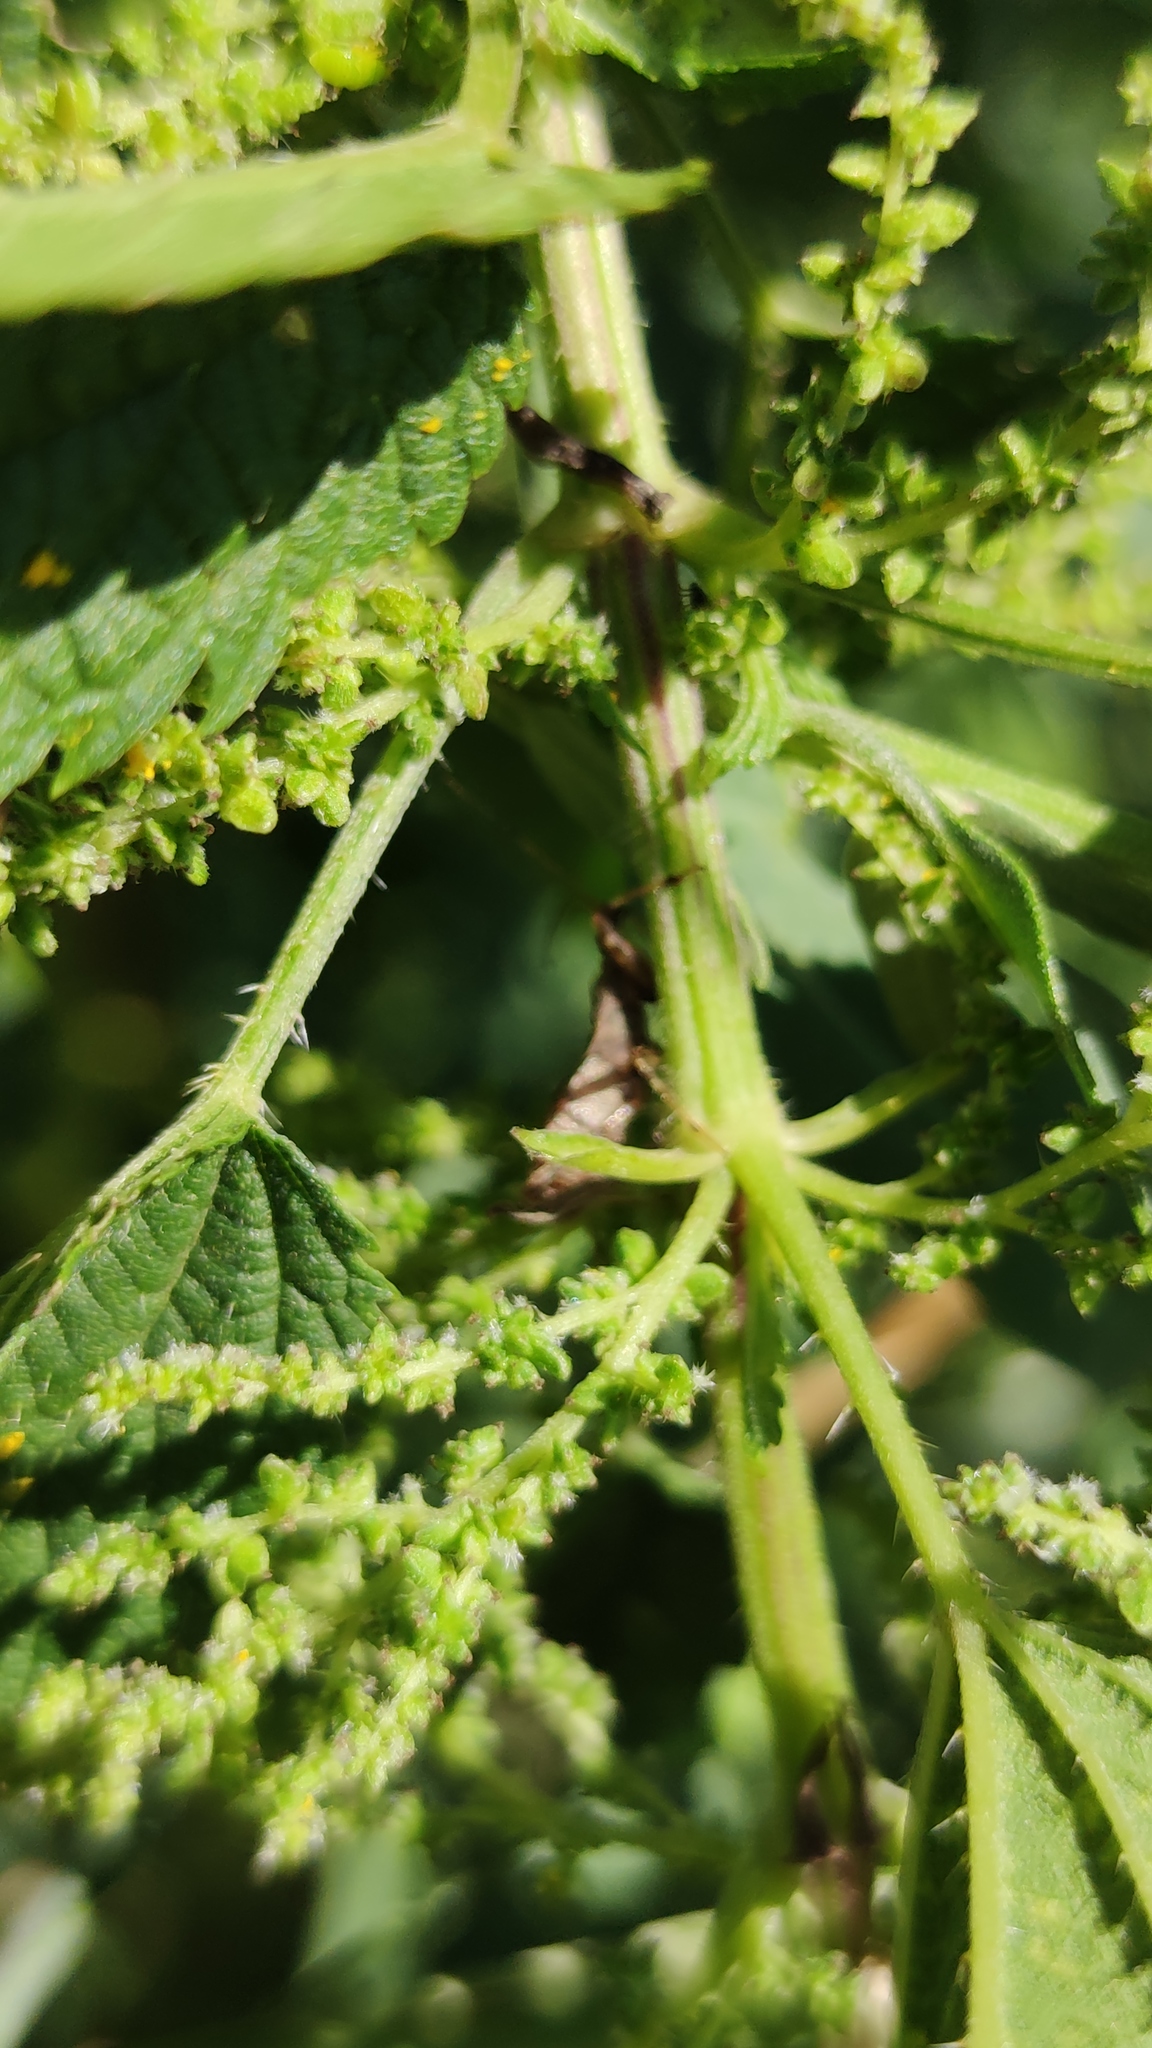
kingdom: Animalia
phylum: Arthropoda
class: Insecta
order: Hemiptera
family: Nabidae
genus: Himacerus
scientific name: Himacerus apterus
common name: Tree damsel bug
